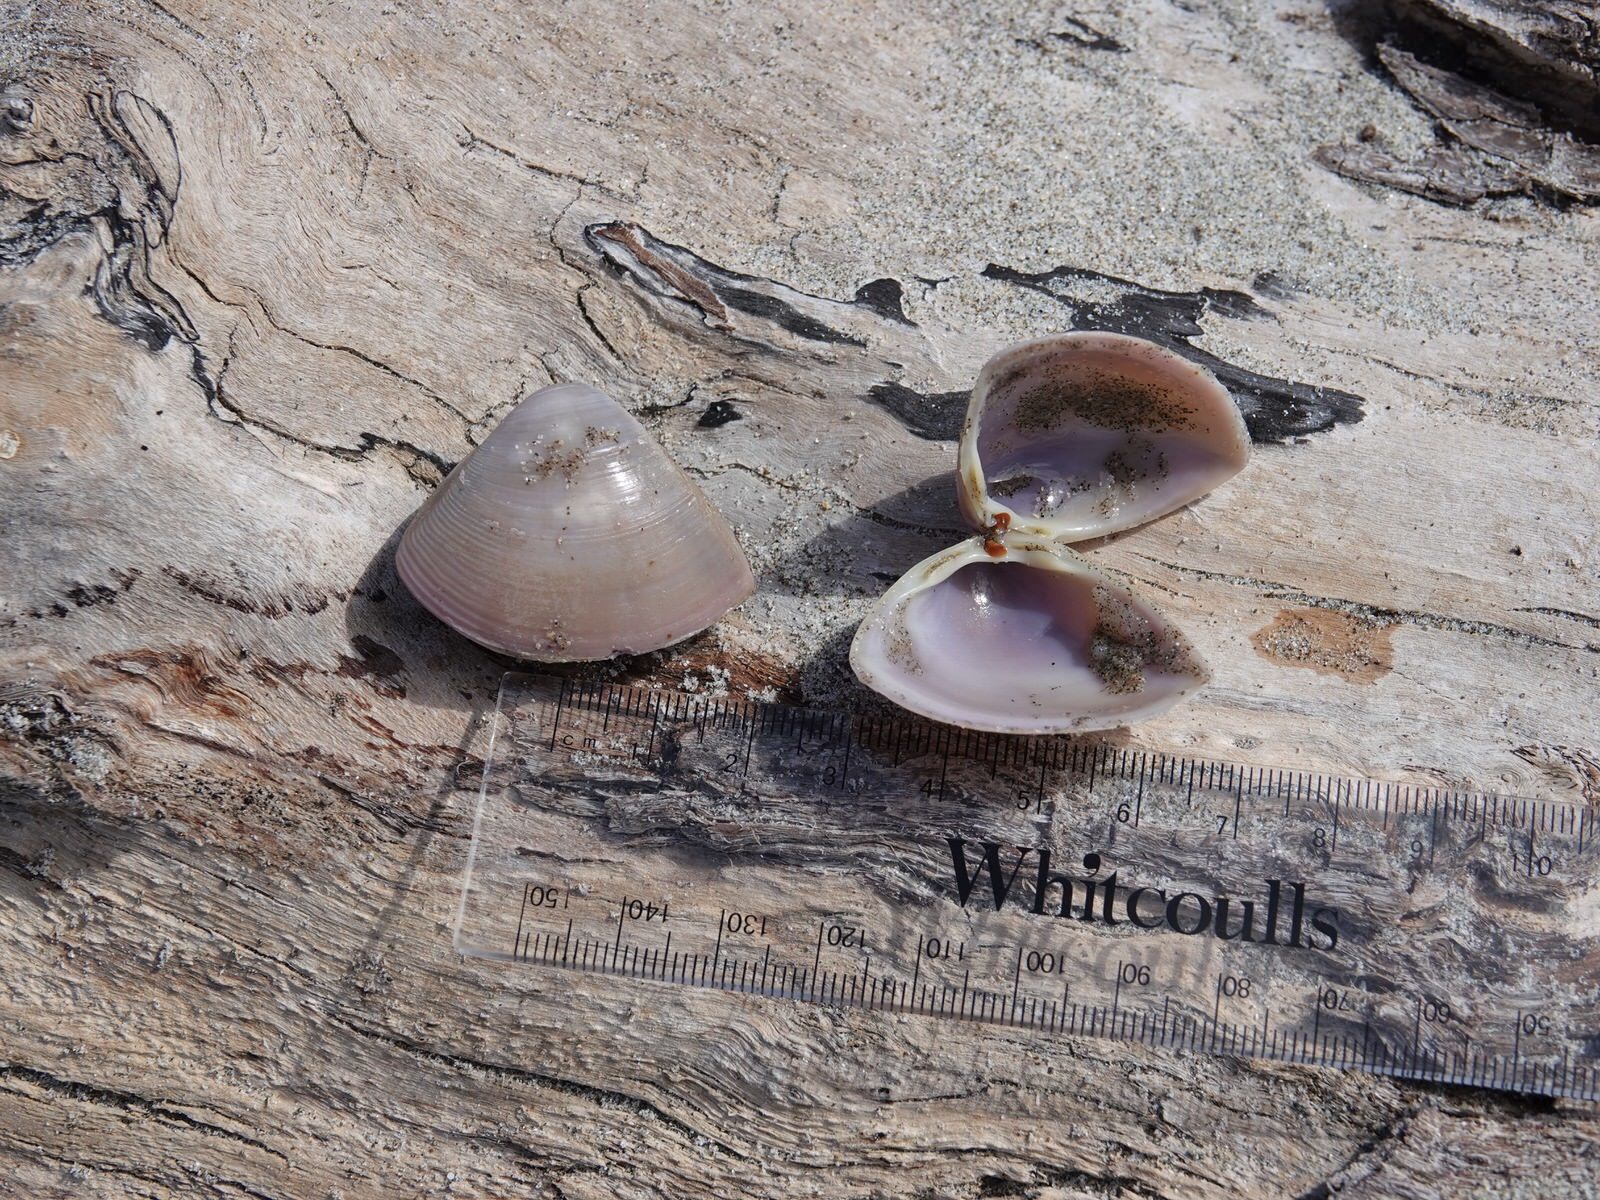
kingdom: Animalia
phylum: Mollusca
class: Bivalvia
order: Venerida
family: Mactridae
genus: Crassula
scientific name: Crassula aequilatera
